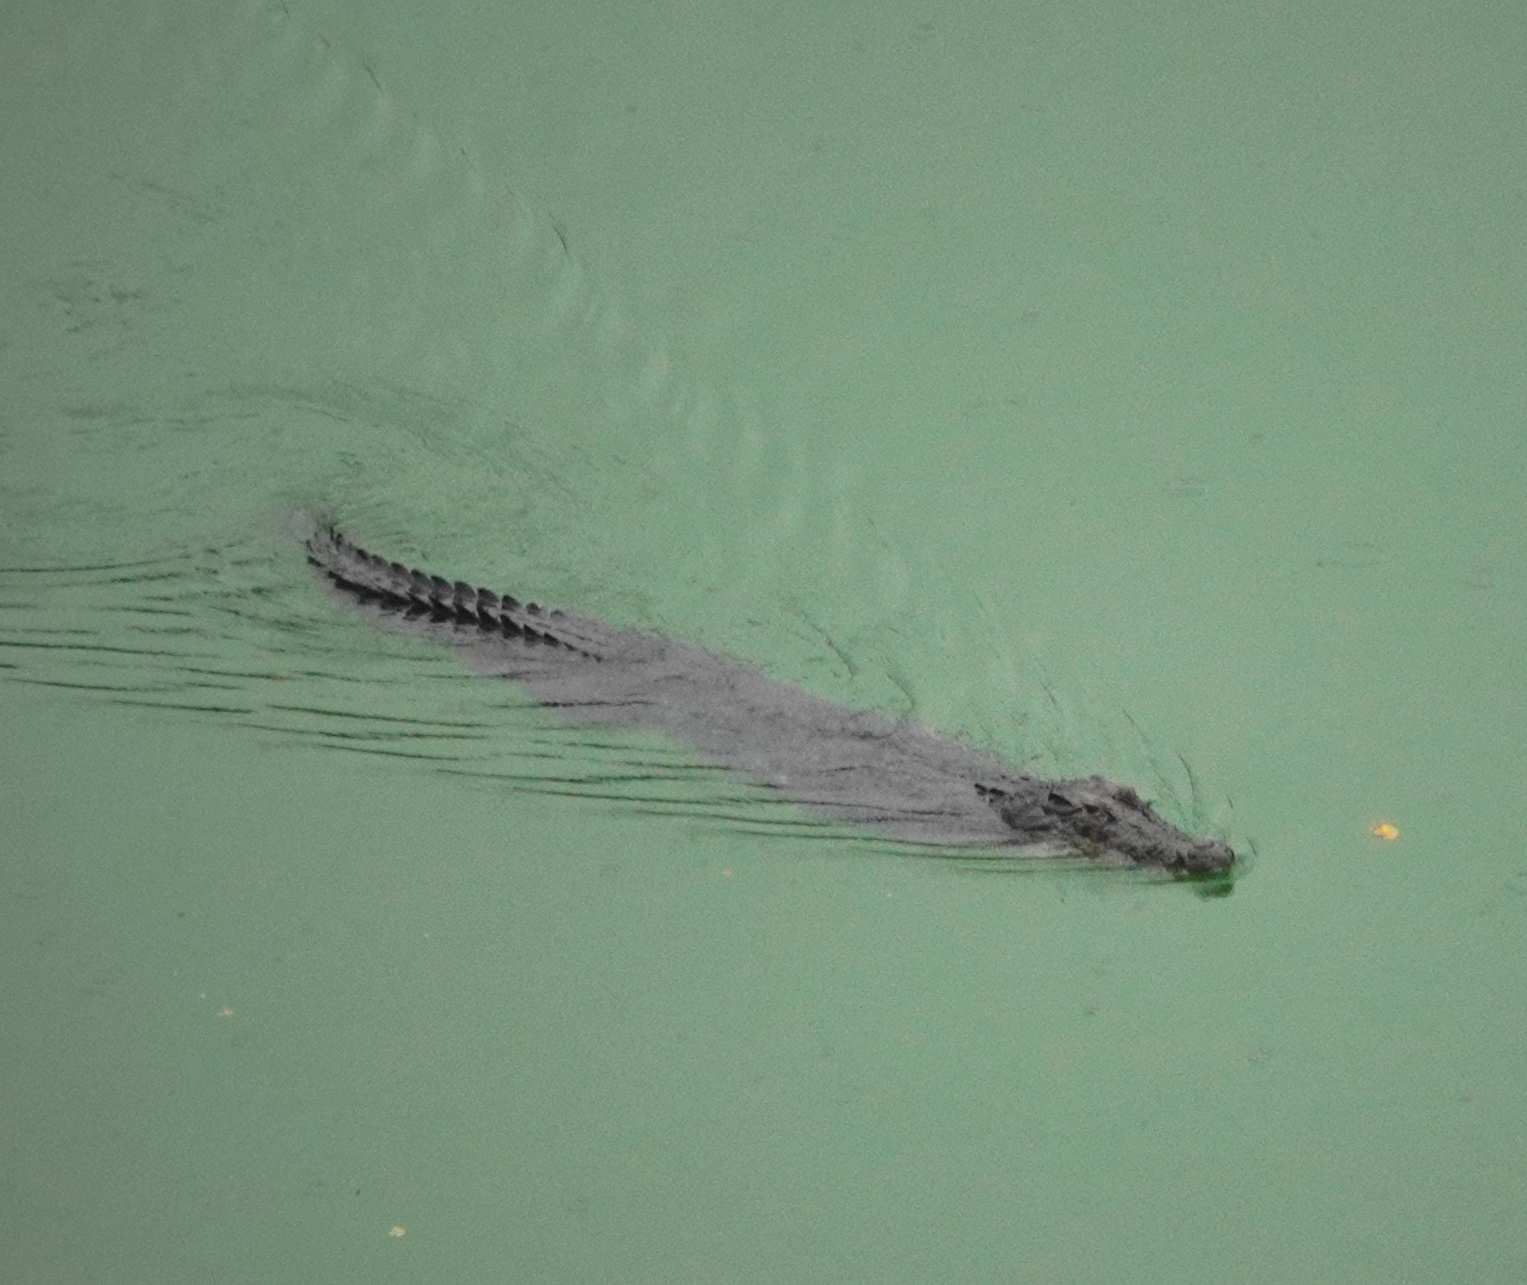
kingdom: Animalia
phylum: Chordata
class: Crocodylia
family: Crocodylidae
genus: Crocodylus
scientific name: Crocodylus porosus
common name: Saltwater crocodile
